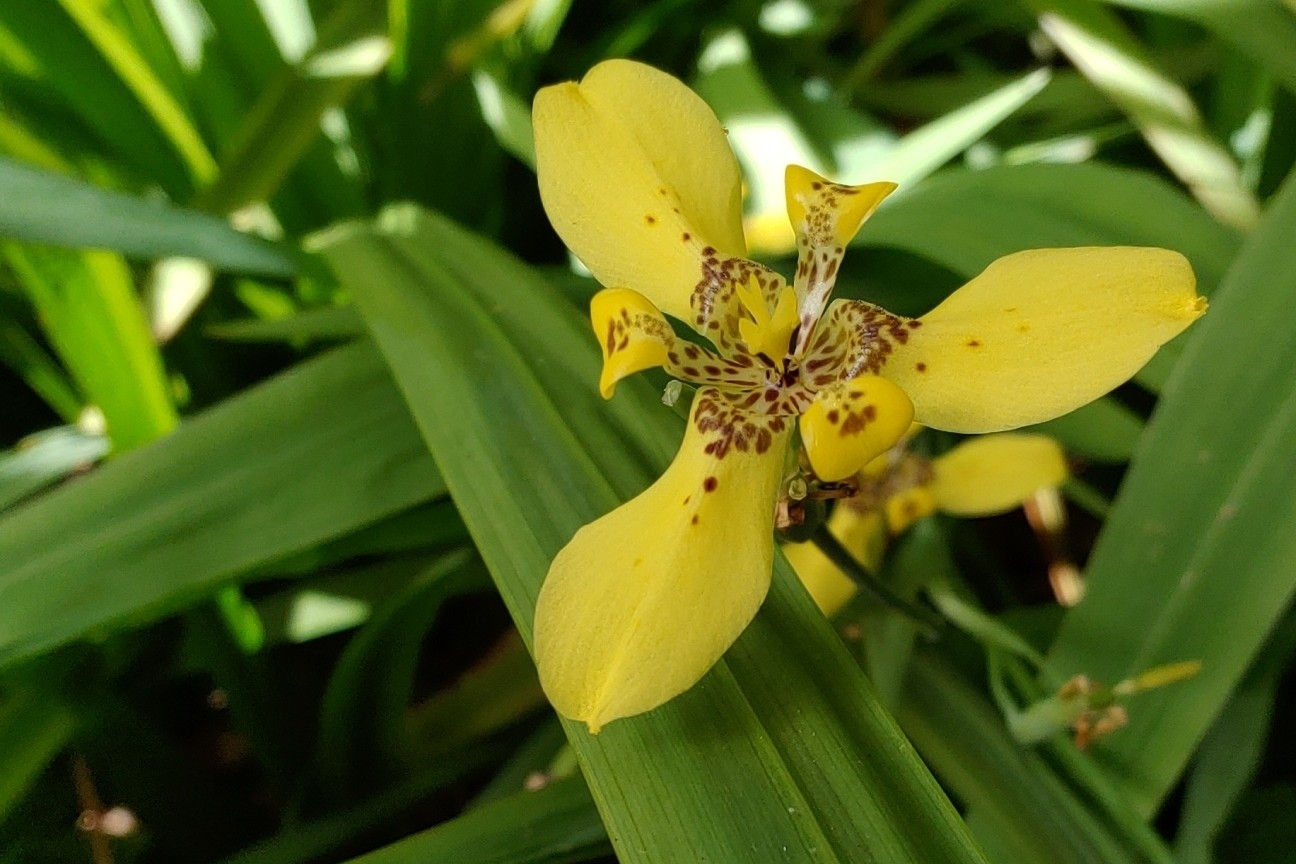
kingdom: Plantae
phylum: Tracheophyta
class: Liliopsida
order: Asparagales
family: Iridaceae
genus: Trimezia
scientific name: Trimezia steyermarkii
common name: Trimezia
